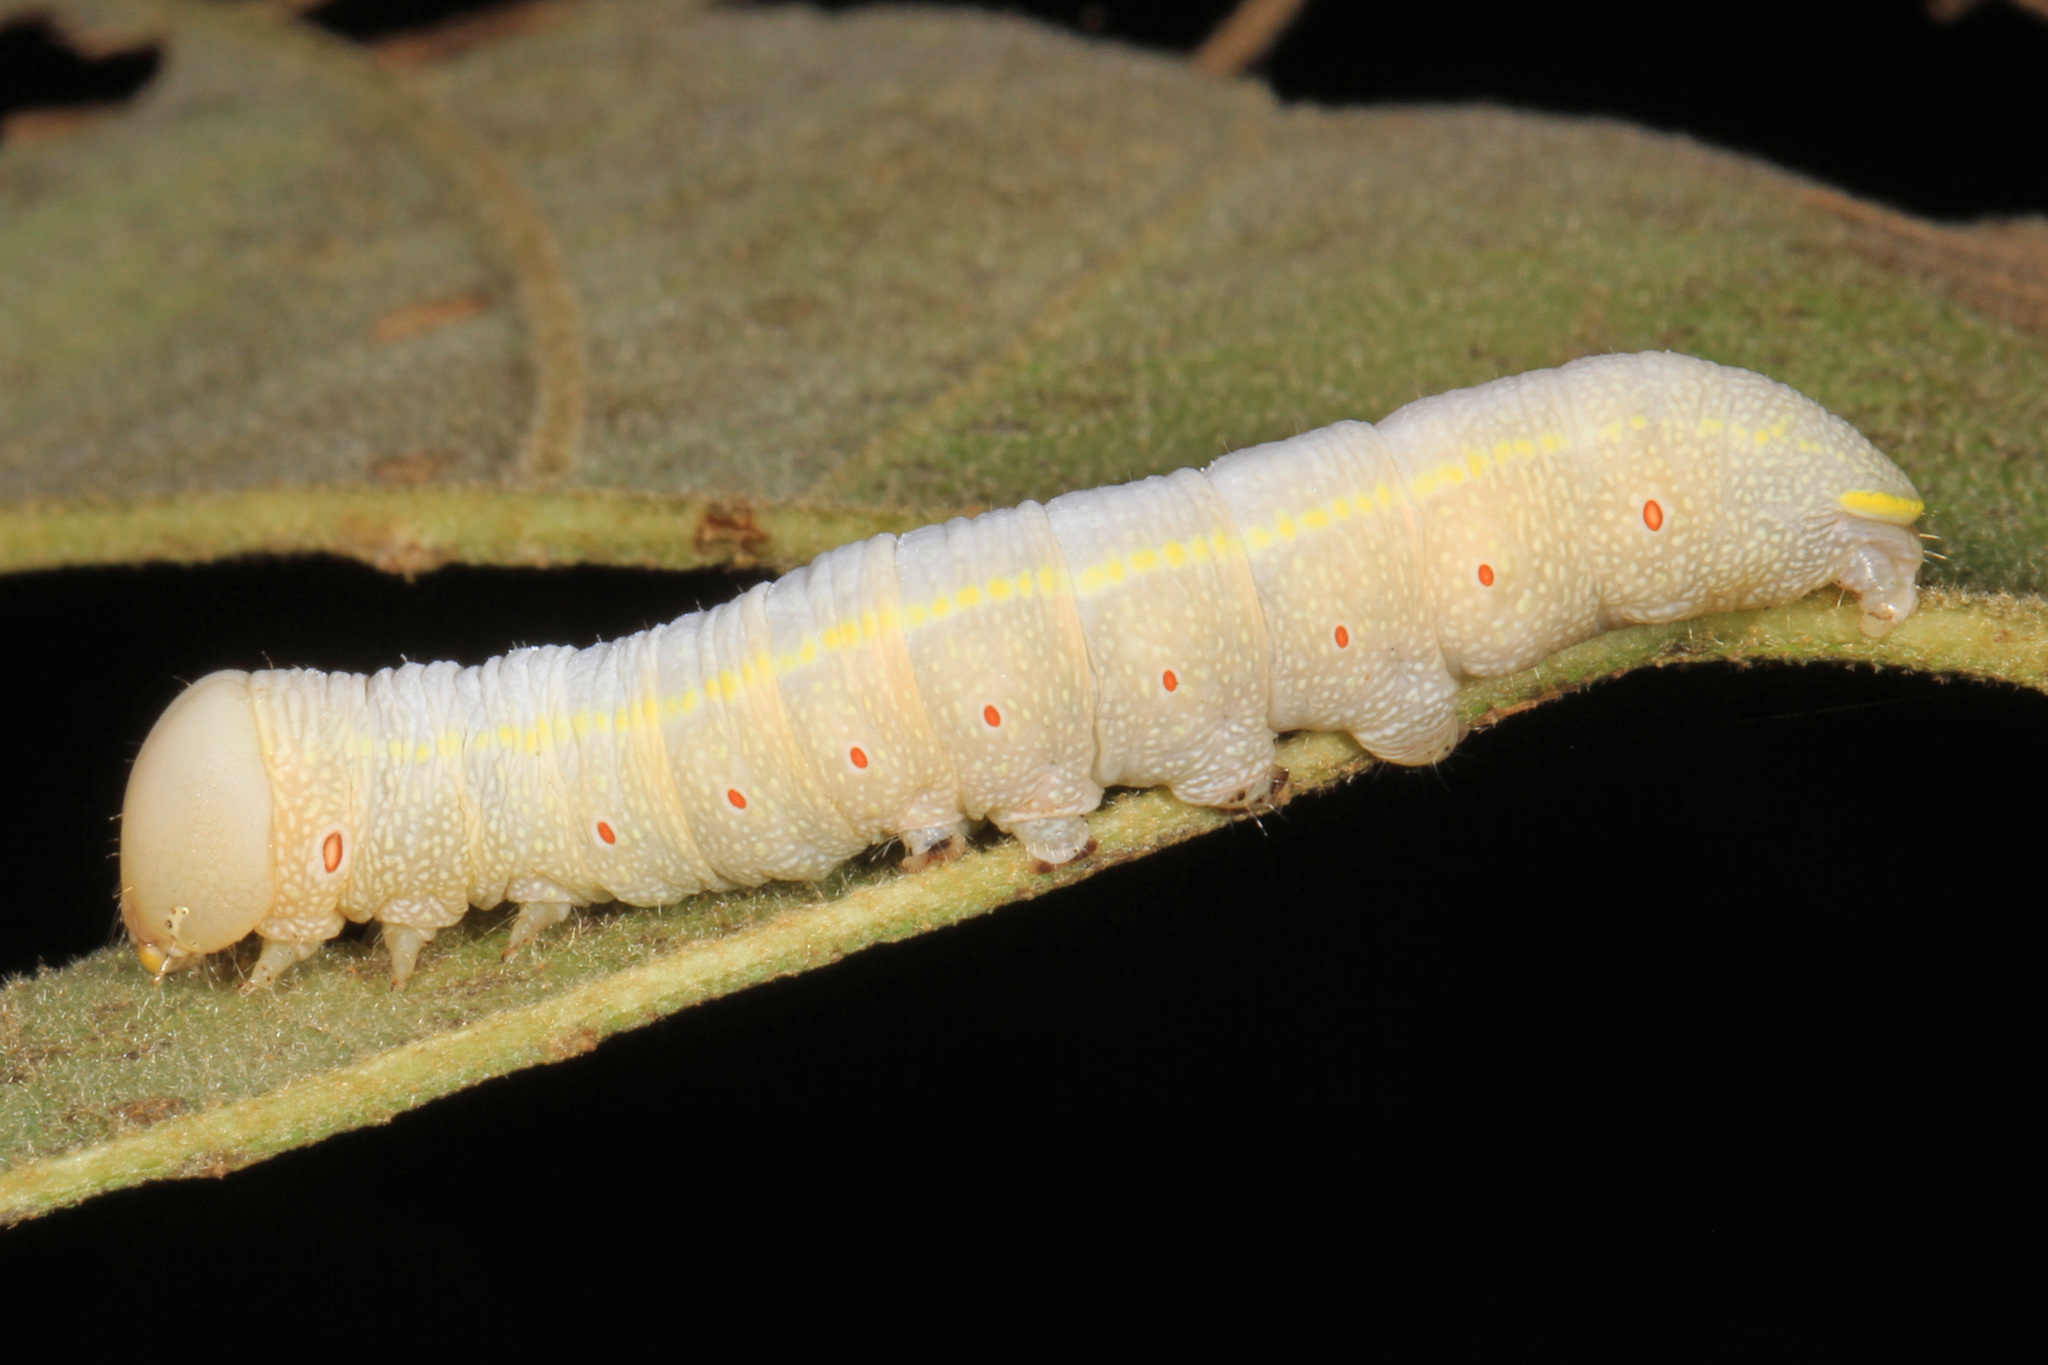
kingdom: Animalia
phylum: Arthropoda
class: Insecta
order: Lepidoptera
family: Notodontidae
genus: Nadata
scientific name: Nadata gibbosa
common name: White-dotted prominent
